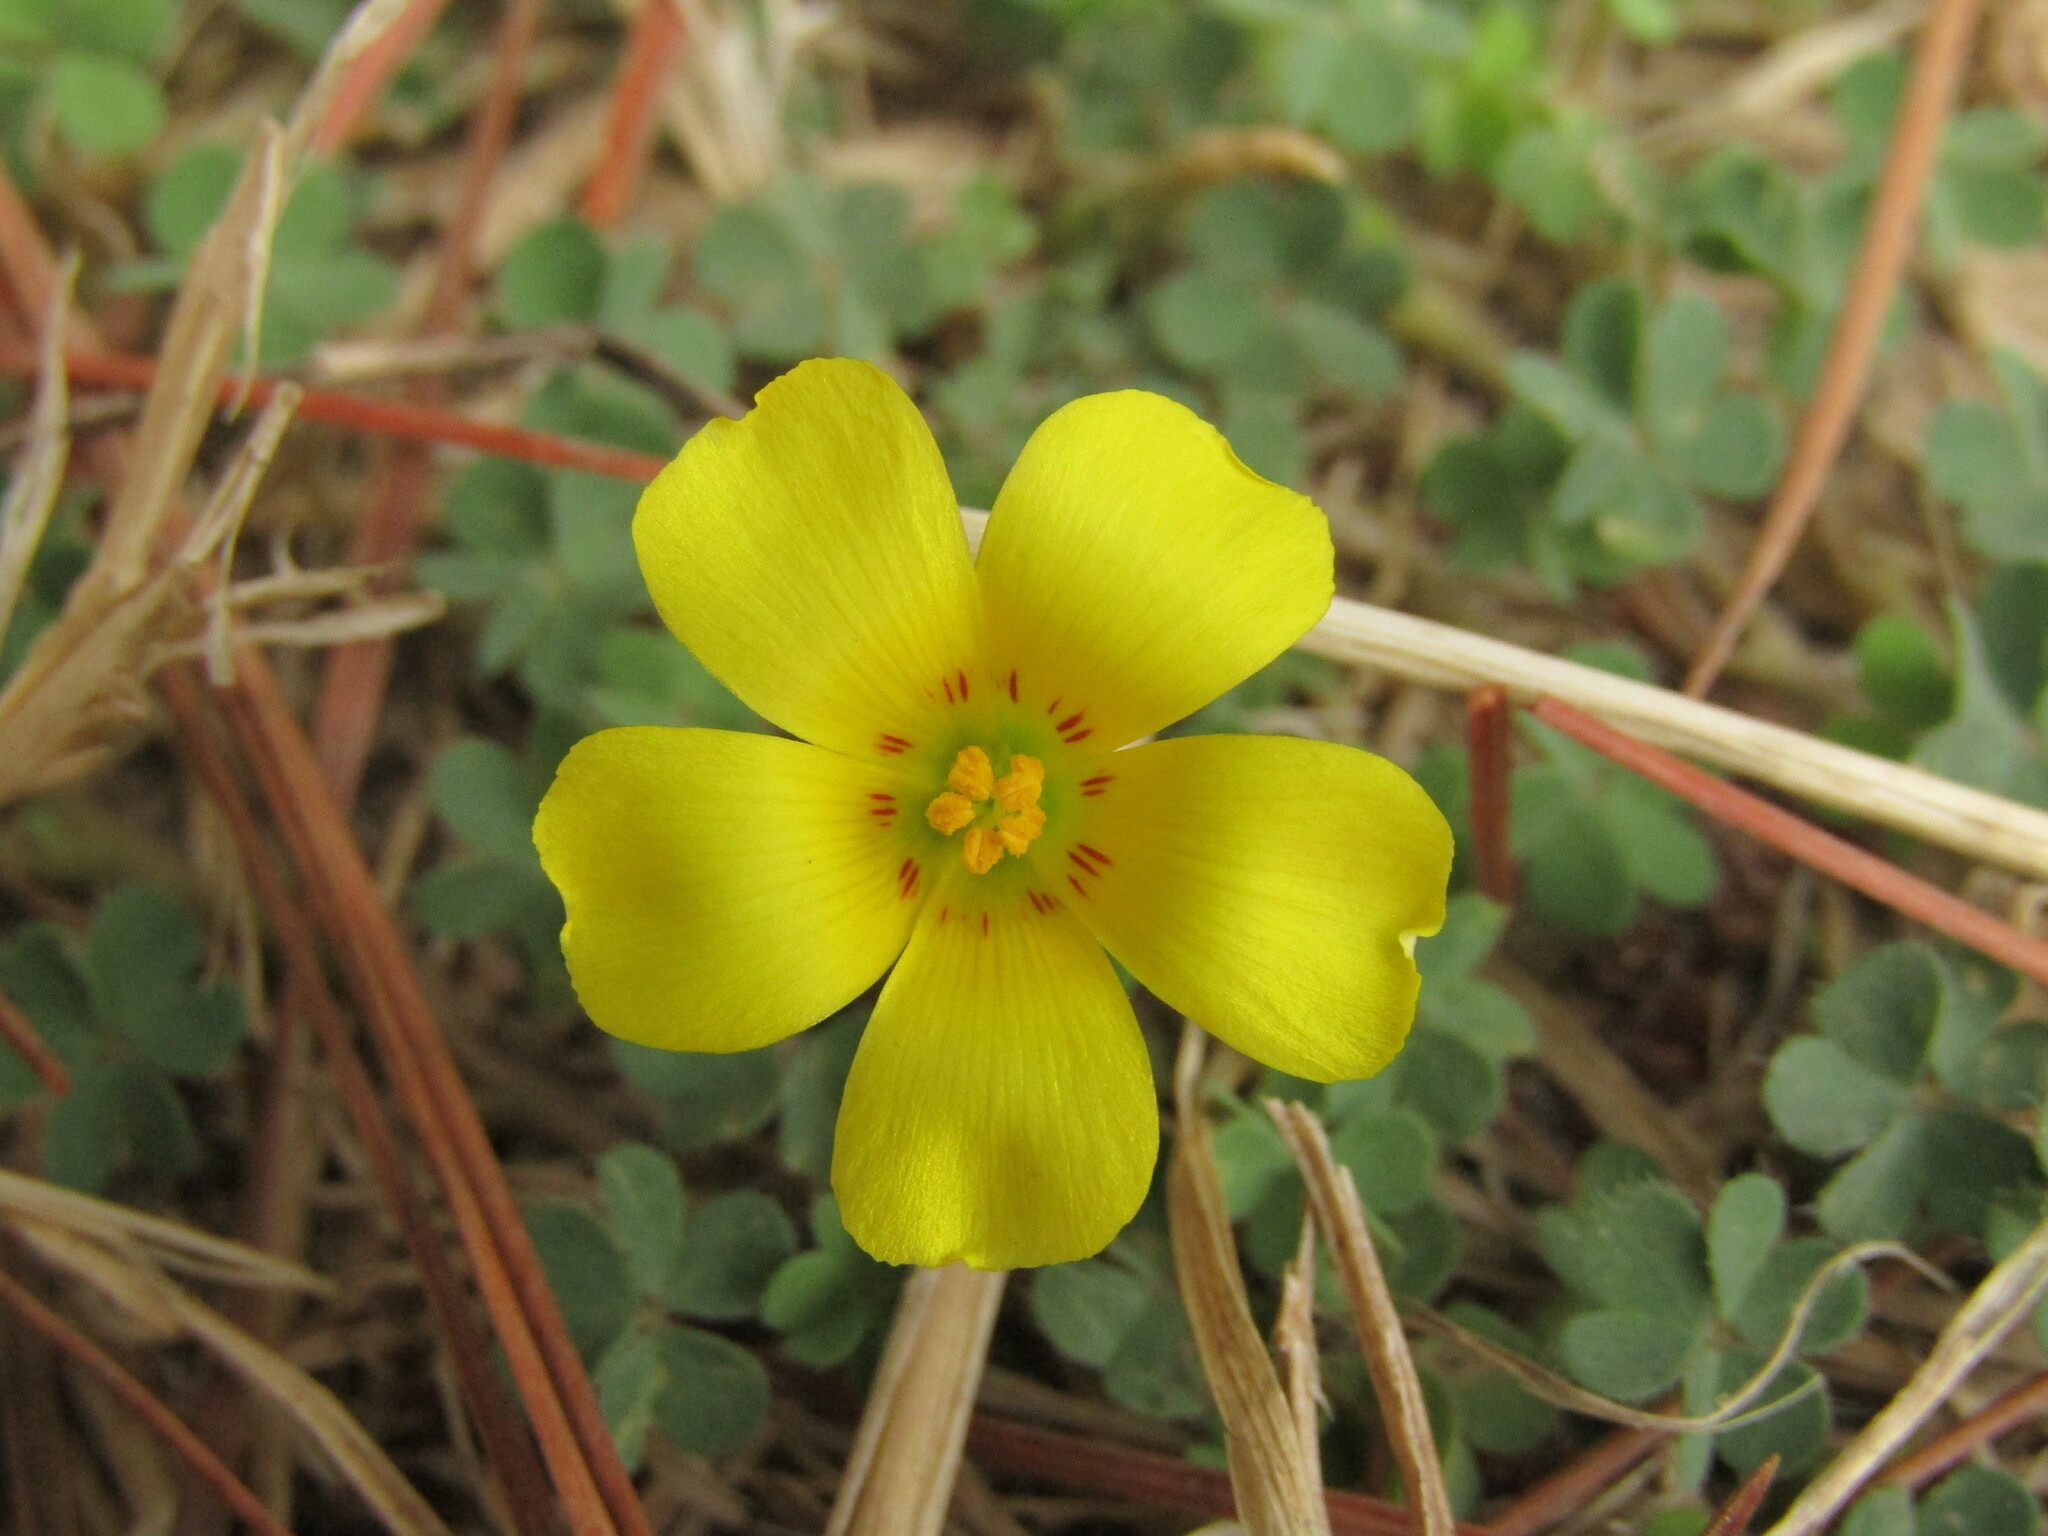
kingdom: Plantae
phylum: Tracheophyta
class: Magnoliopsida
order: Oxalidales
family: Oxalidaceae
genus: Oxalis
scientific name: Oxalis gyrorhiza
